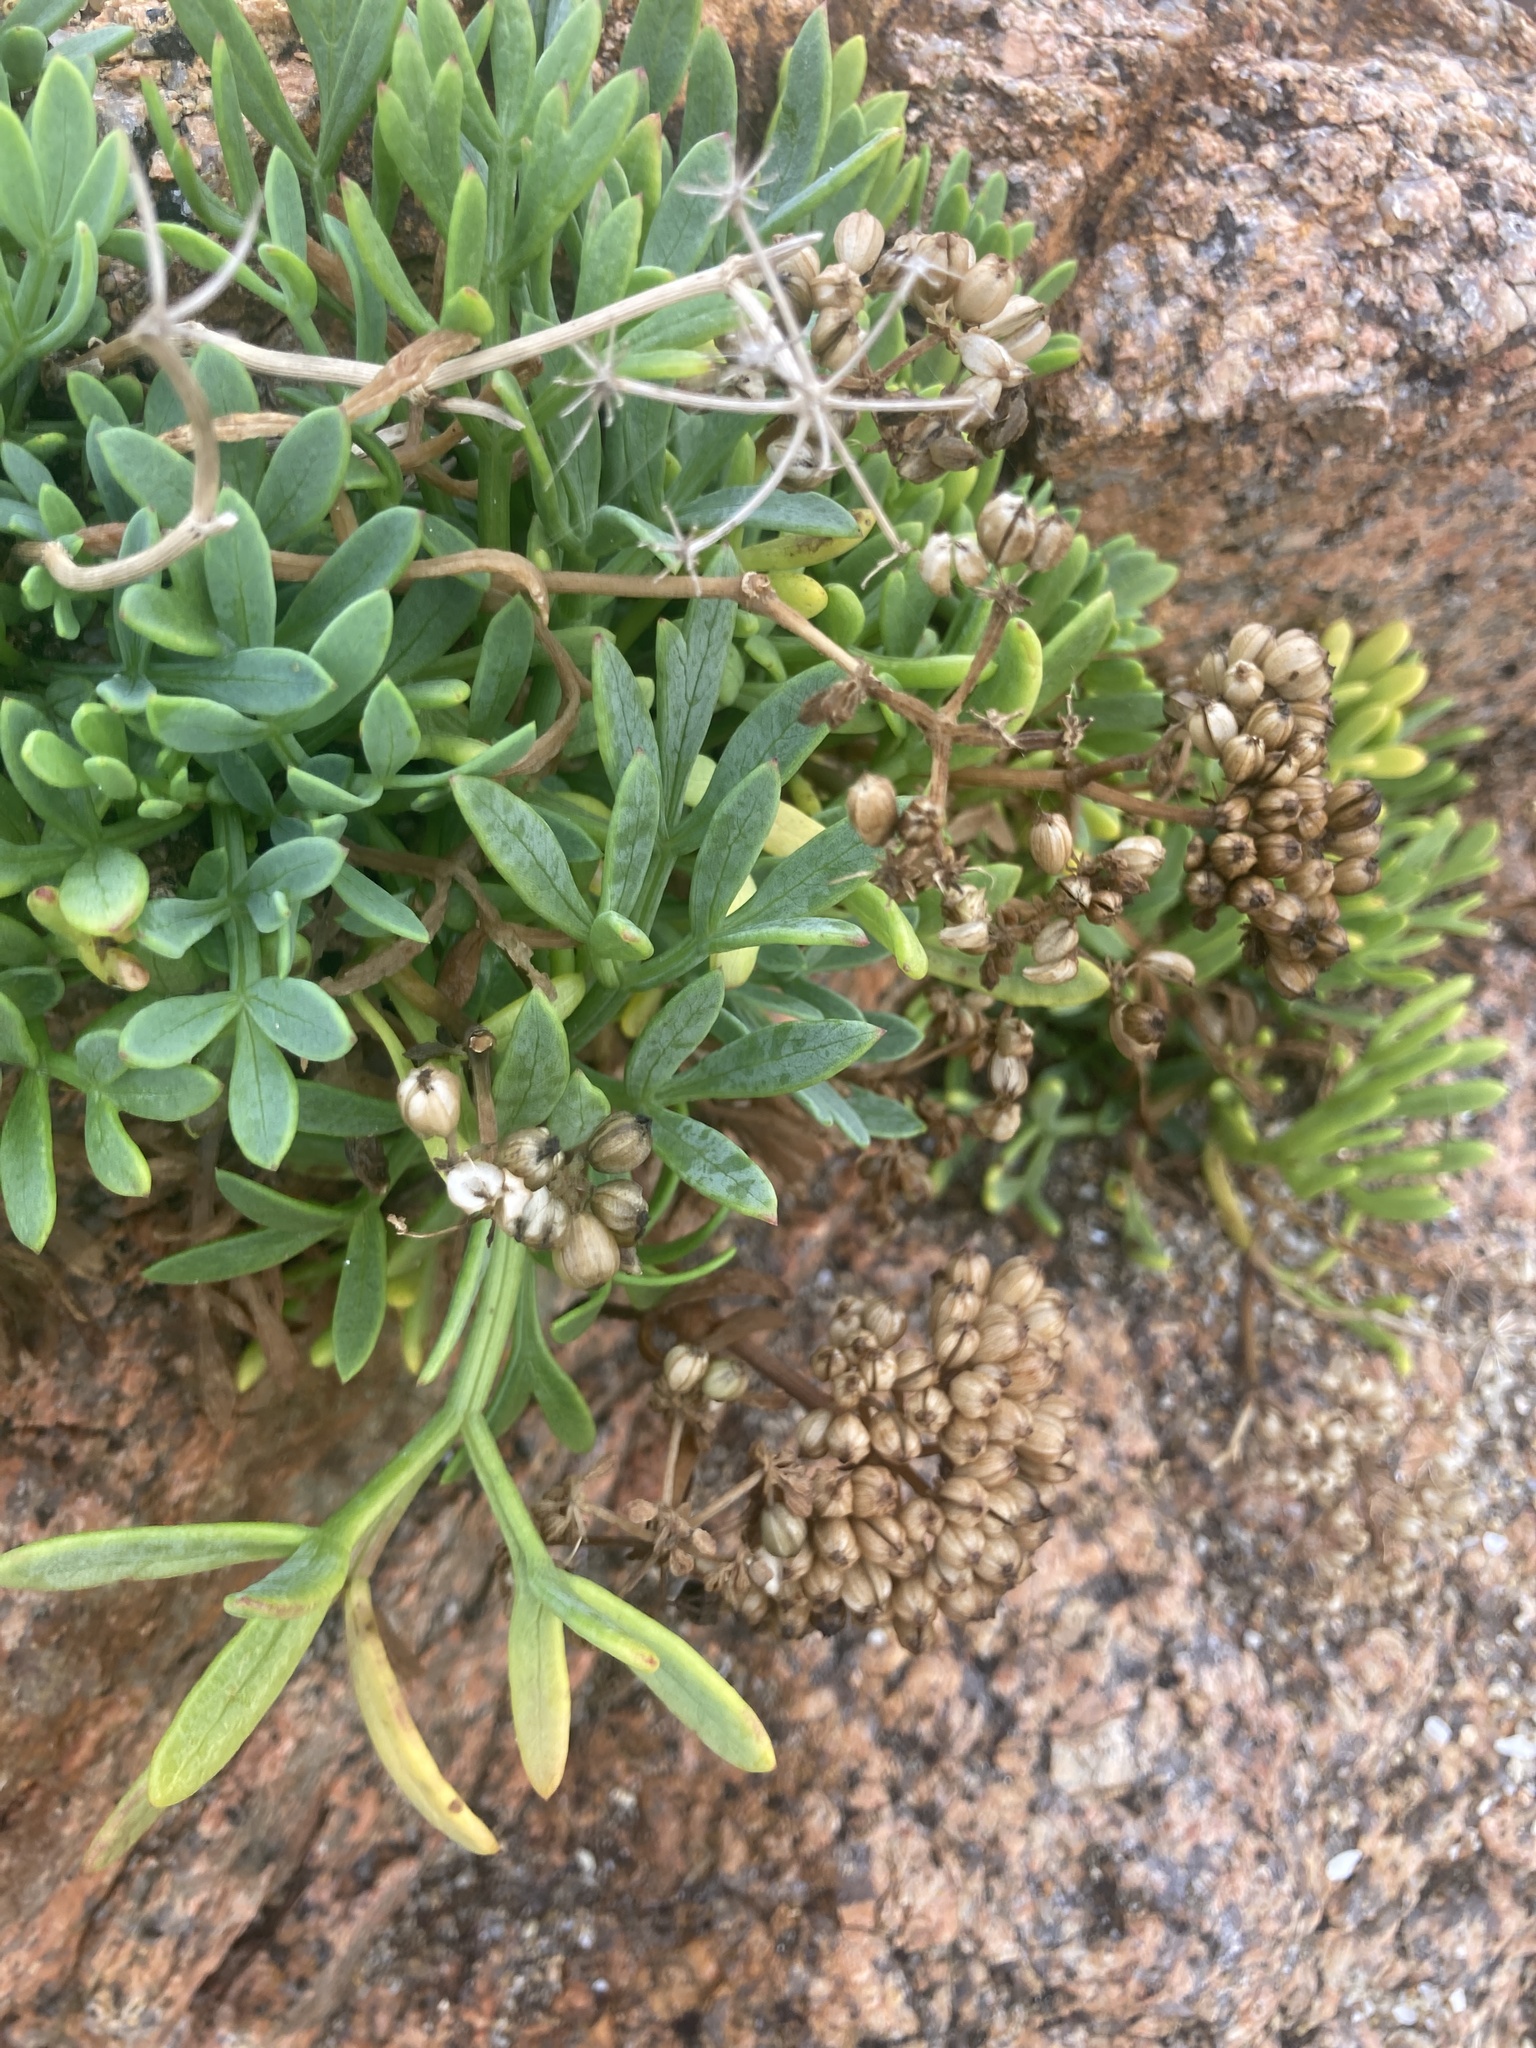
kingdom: Plantae
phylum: Tracheophyta
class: Magnoliopsida
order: Apiales
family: Apiaceae
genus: Crithmum
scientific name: Crithmum maritimum
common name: Rock samphire
